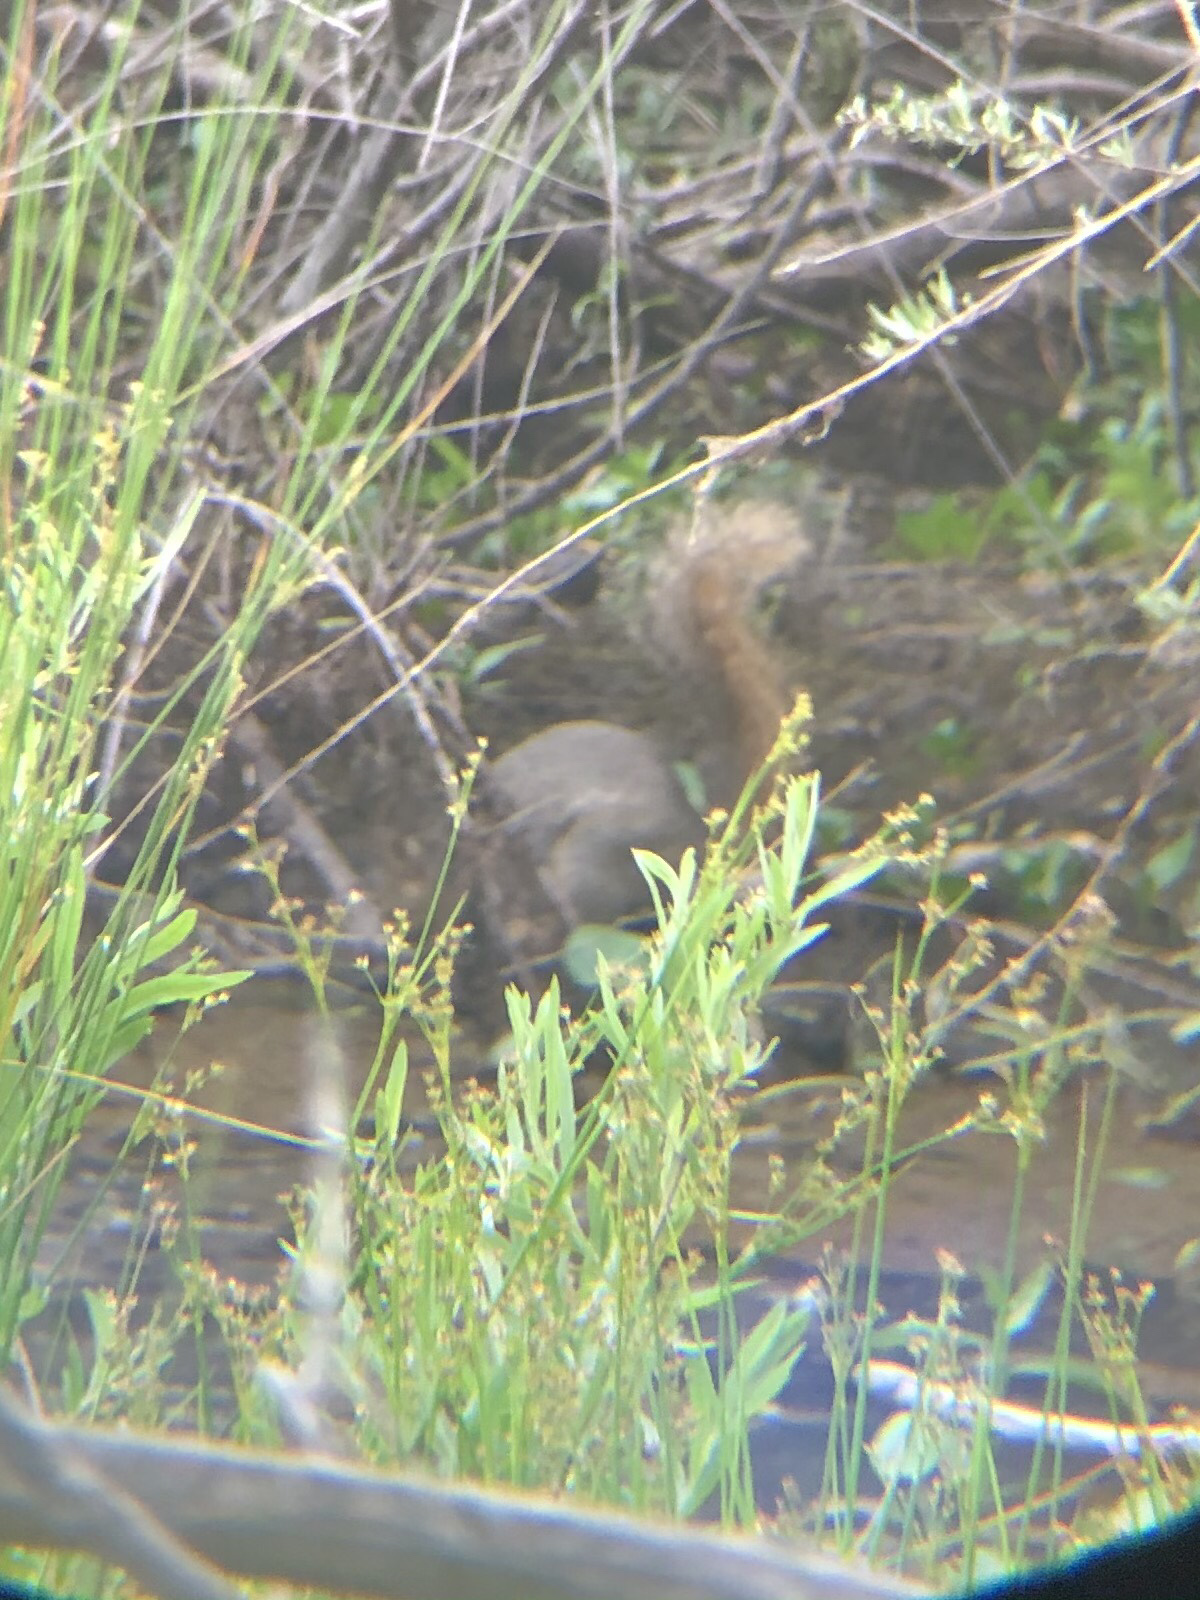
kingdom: Animalia
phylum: Chordata
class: Mammalia
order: Rodentia
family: Sciuridae
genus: Sciurus
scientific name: Sciurus niger
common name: Fox squirrel
